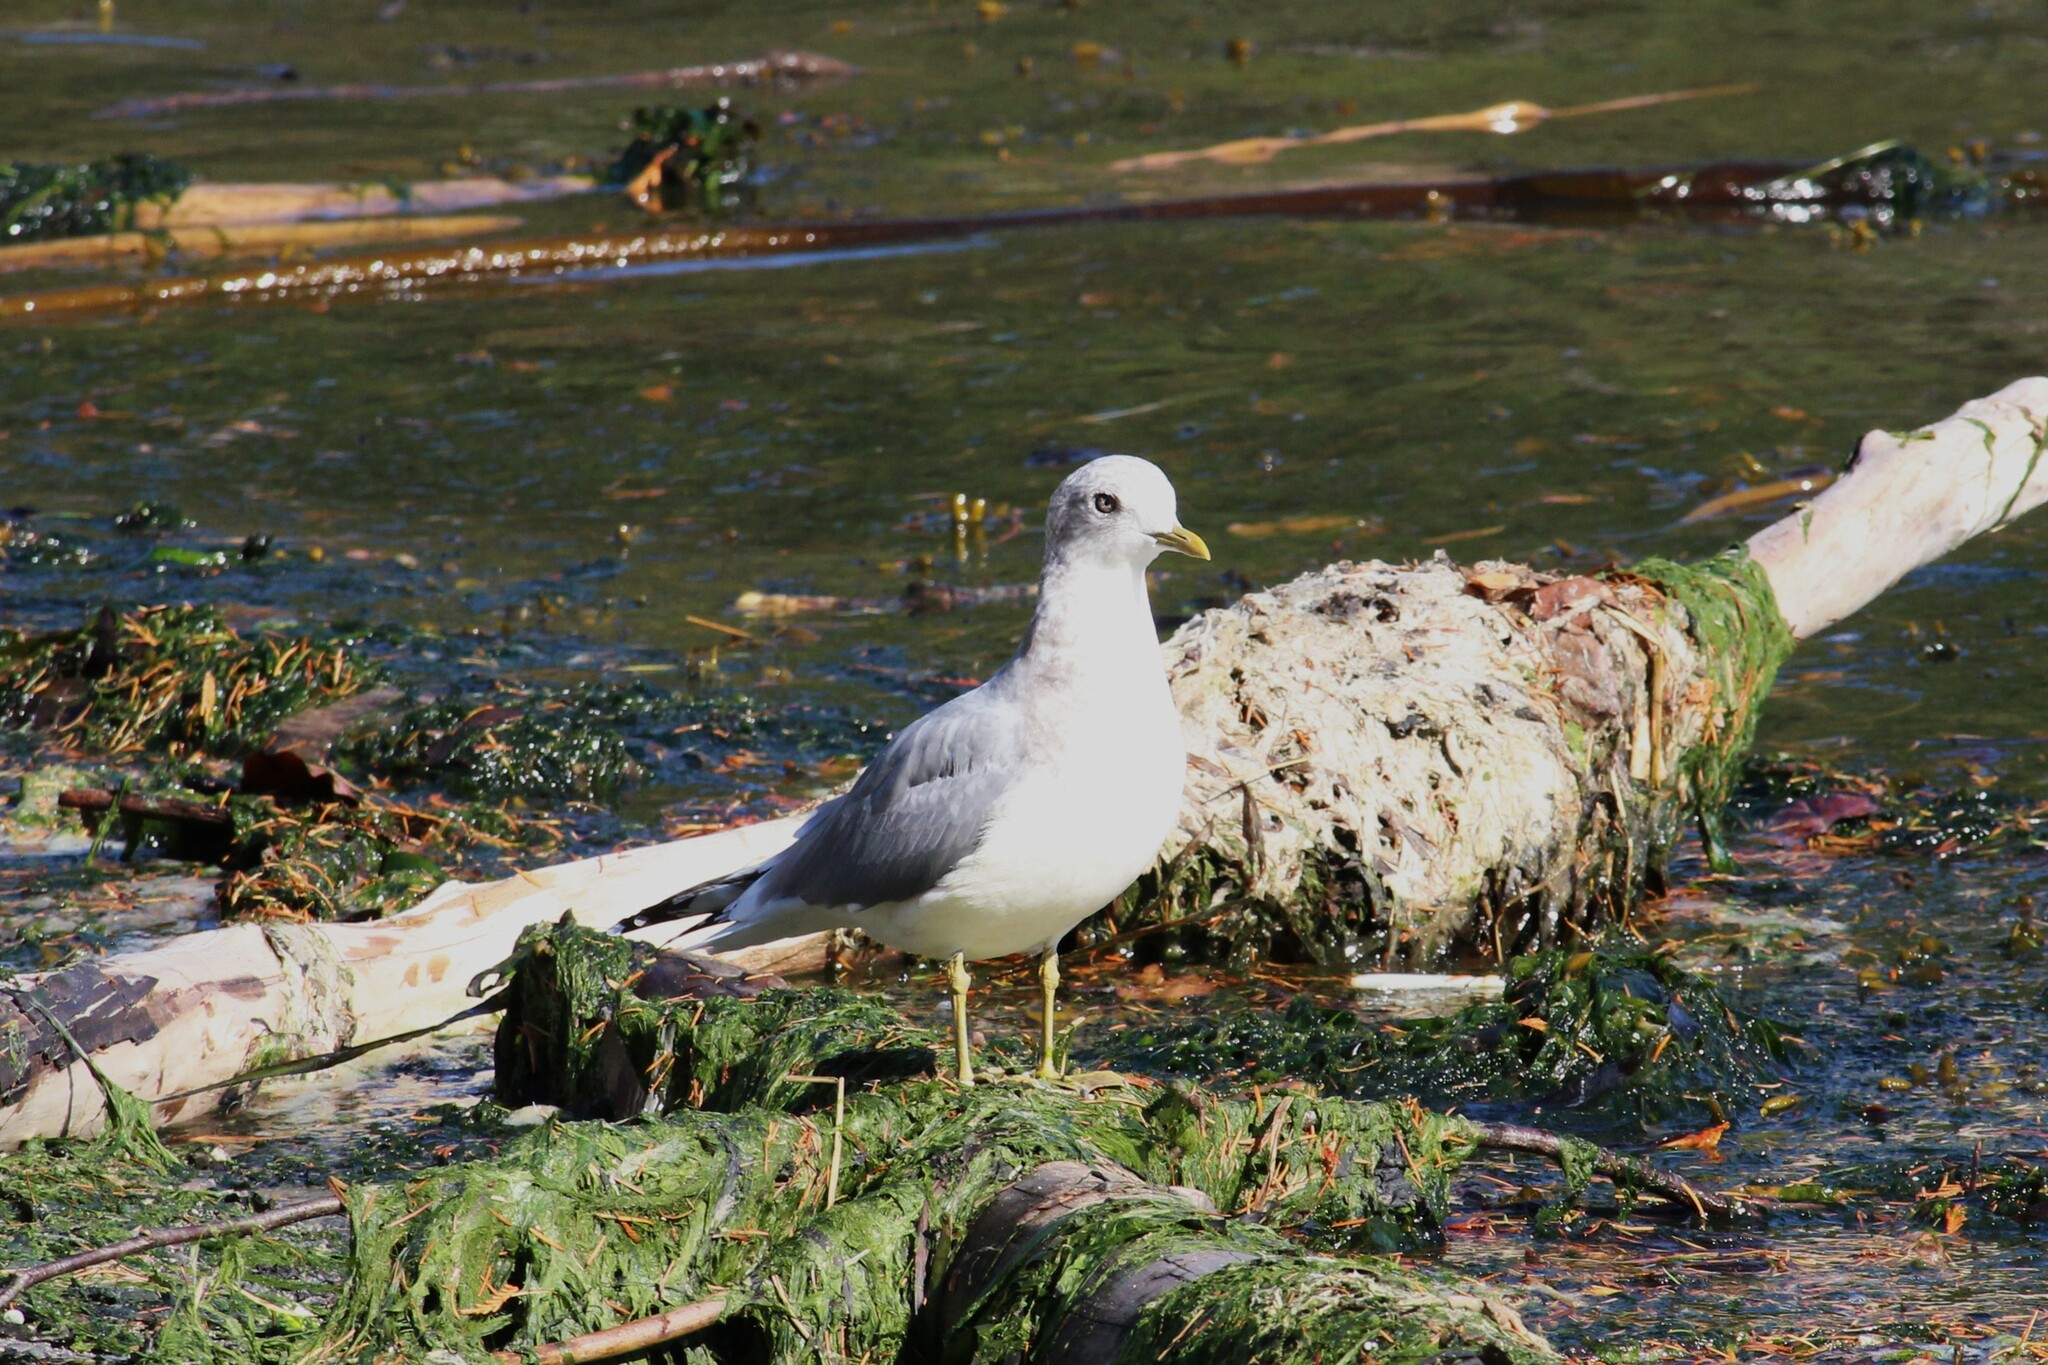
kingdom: Animalia
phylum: Chordata
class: Aves
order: Charadriiformes
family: Laridae
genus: Larus
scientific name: Larus brachyrhynchus
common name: Short-billed gull
